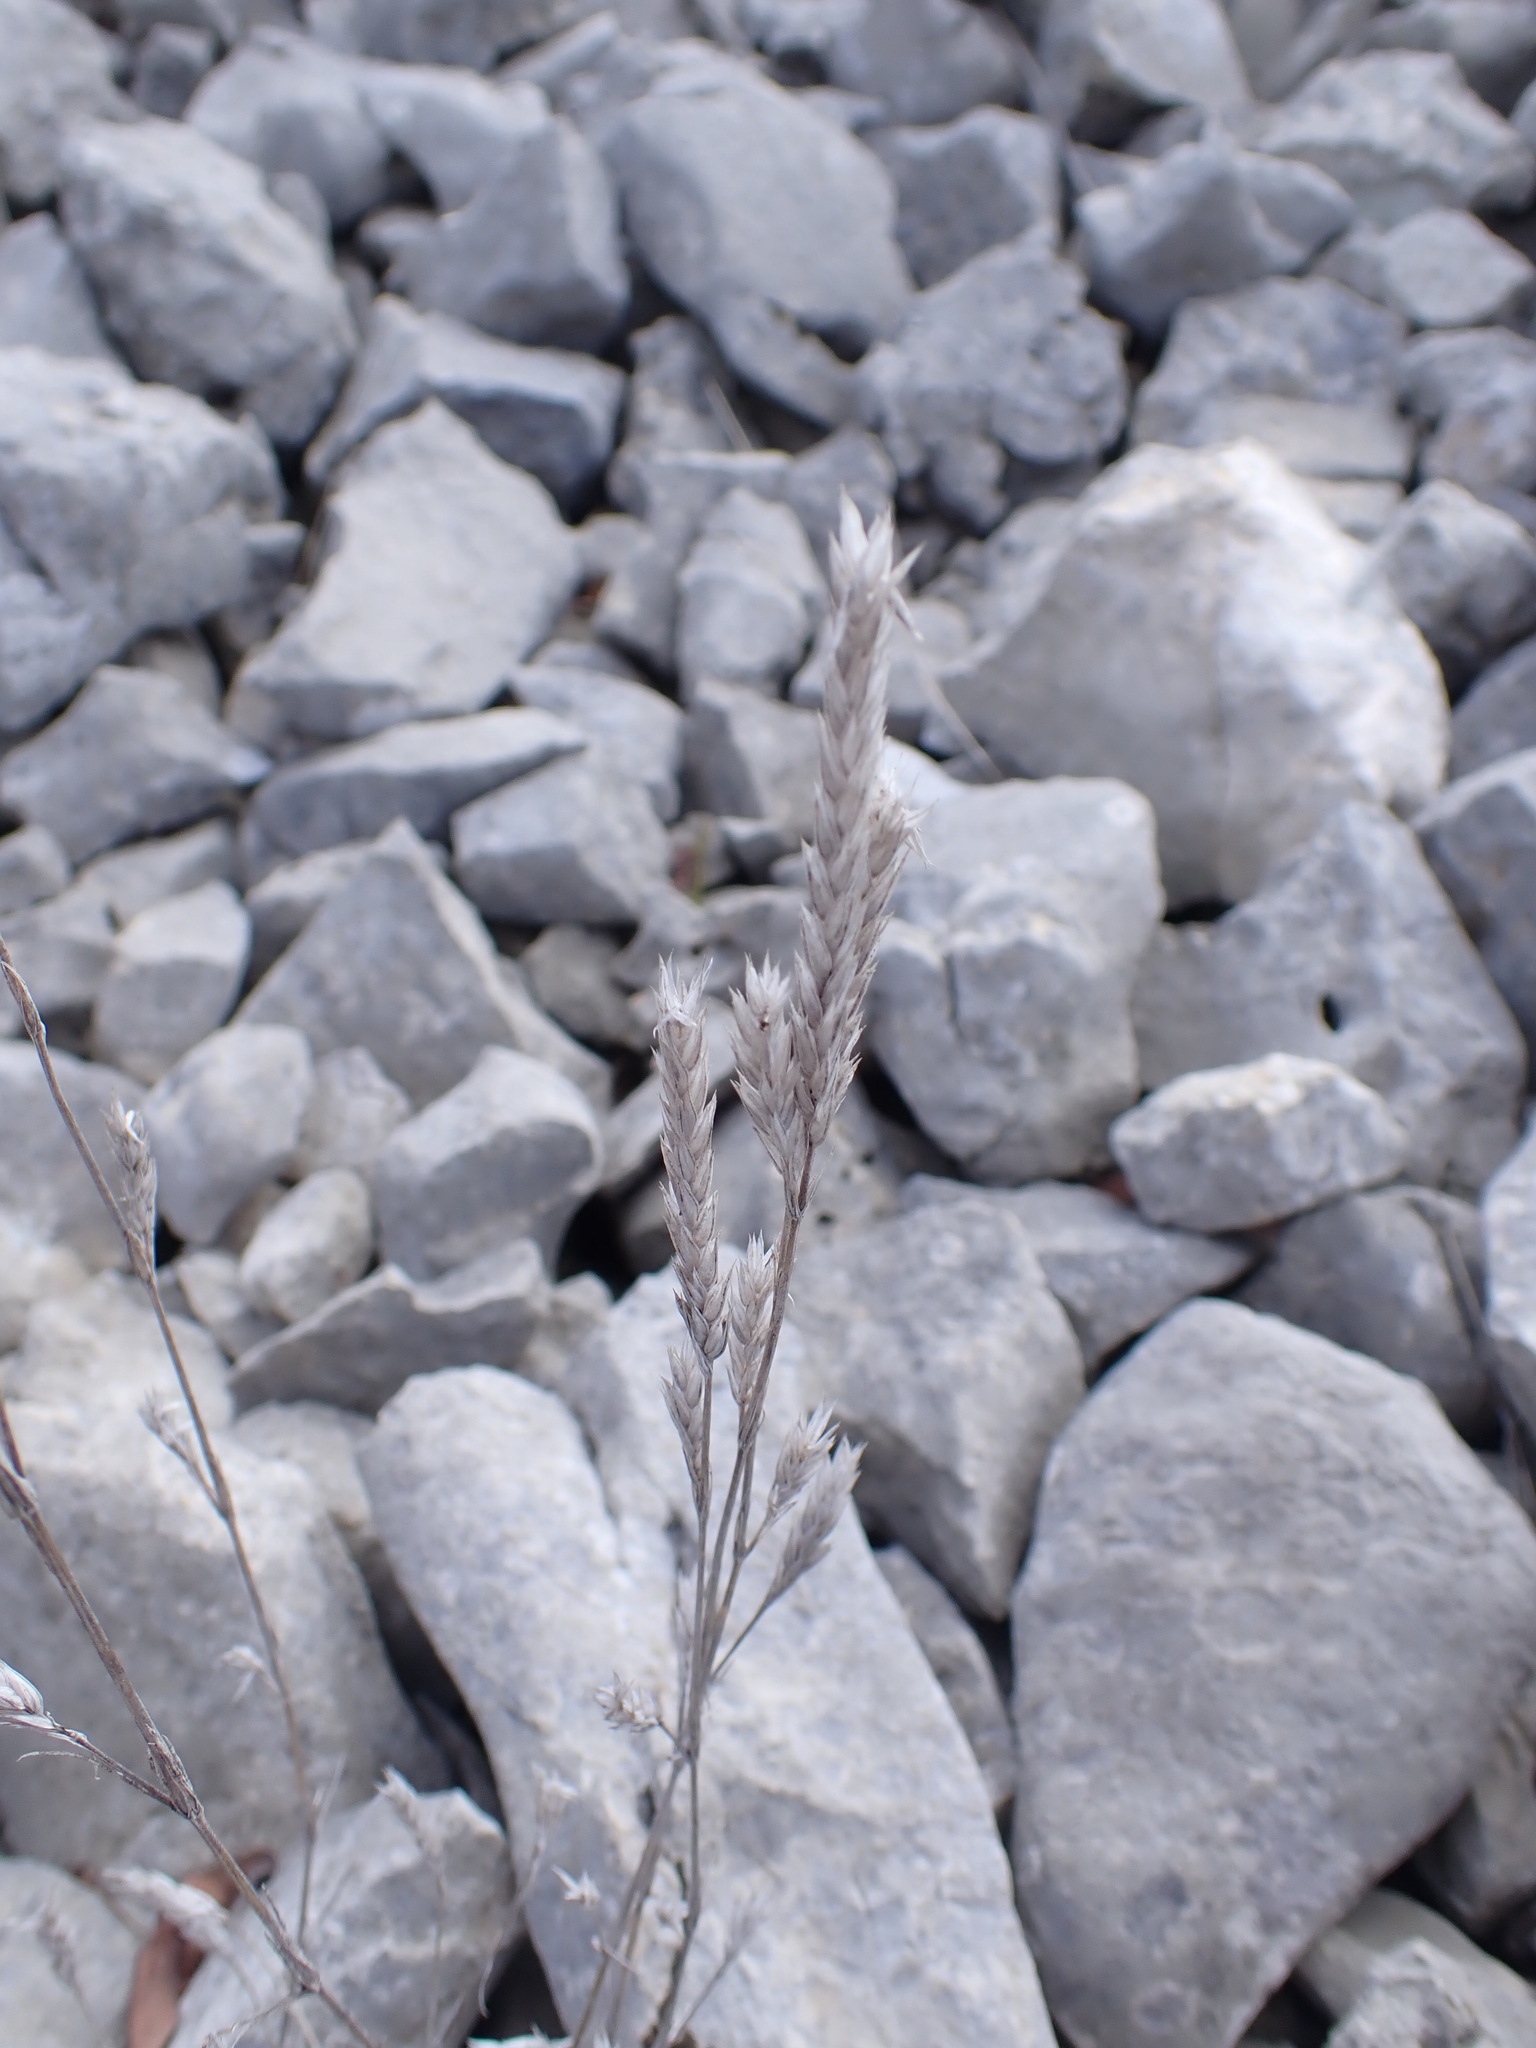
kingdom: Plantae
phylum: Tracheophyta
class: Magnoliopsida
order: Gentianales
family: Rubiaceae
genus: Crucianella
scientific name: Crucianella angustifolia
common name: Narrowleaf crucianella
